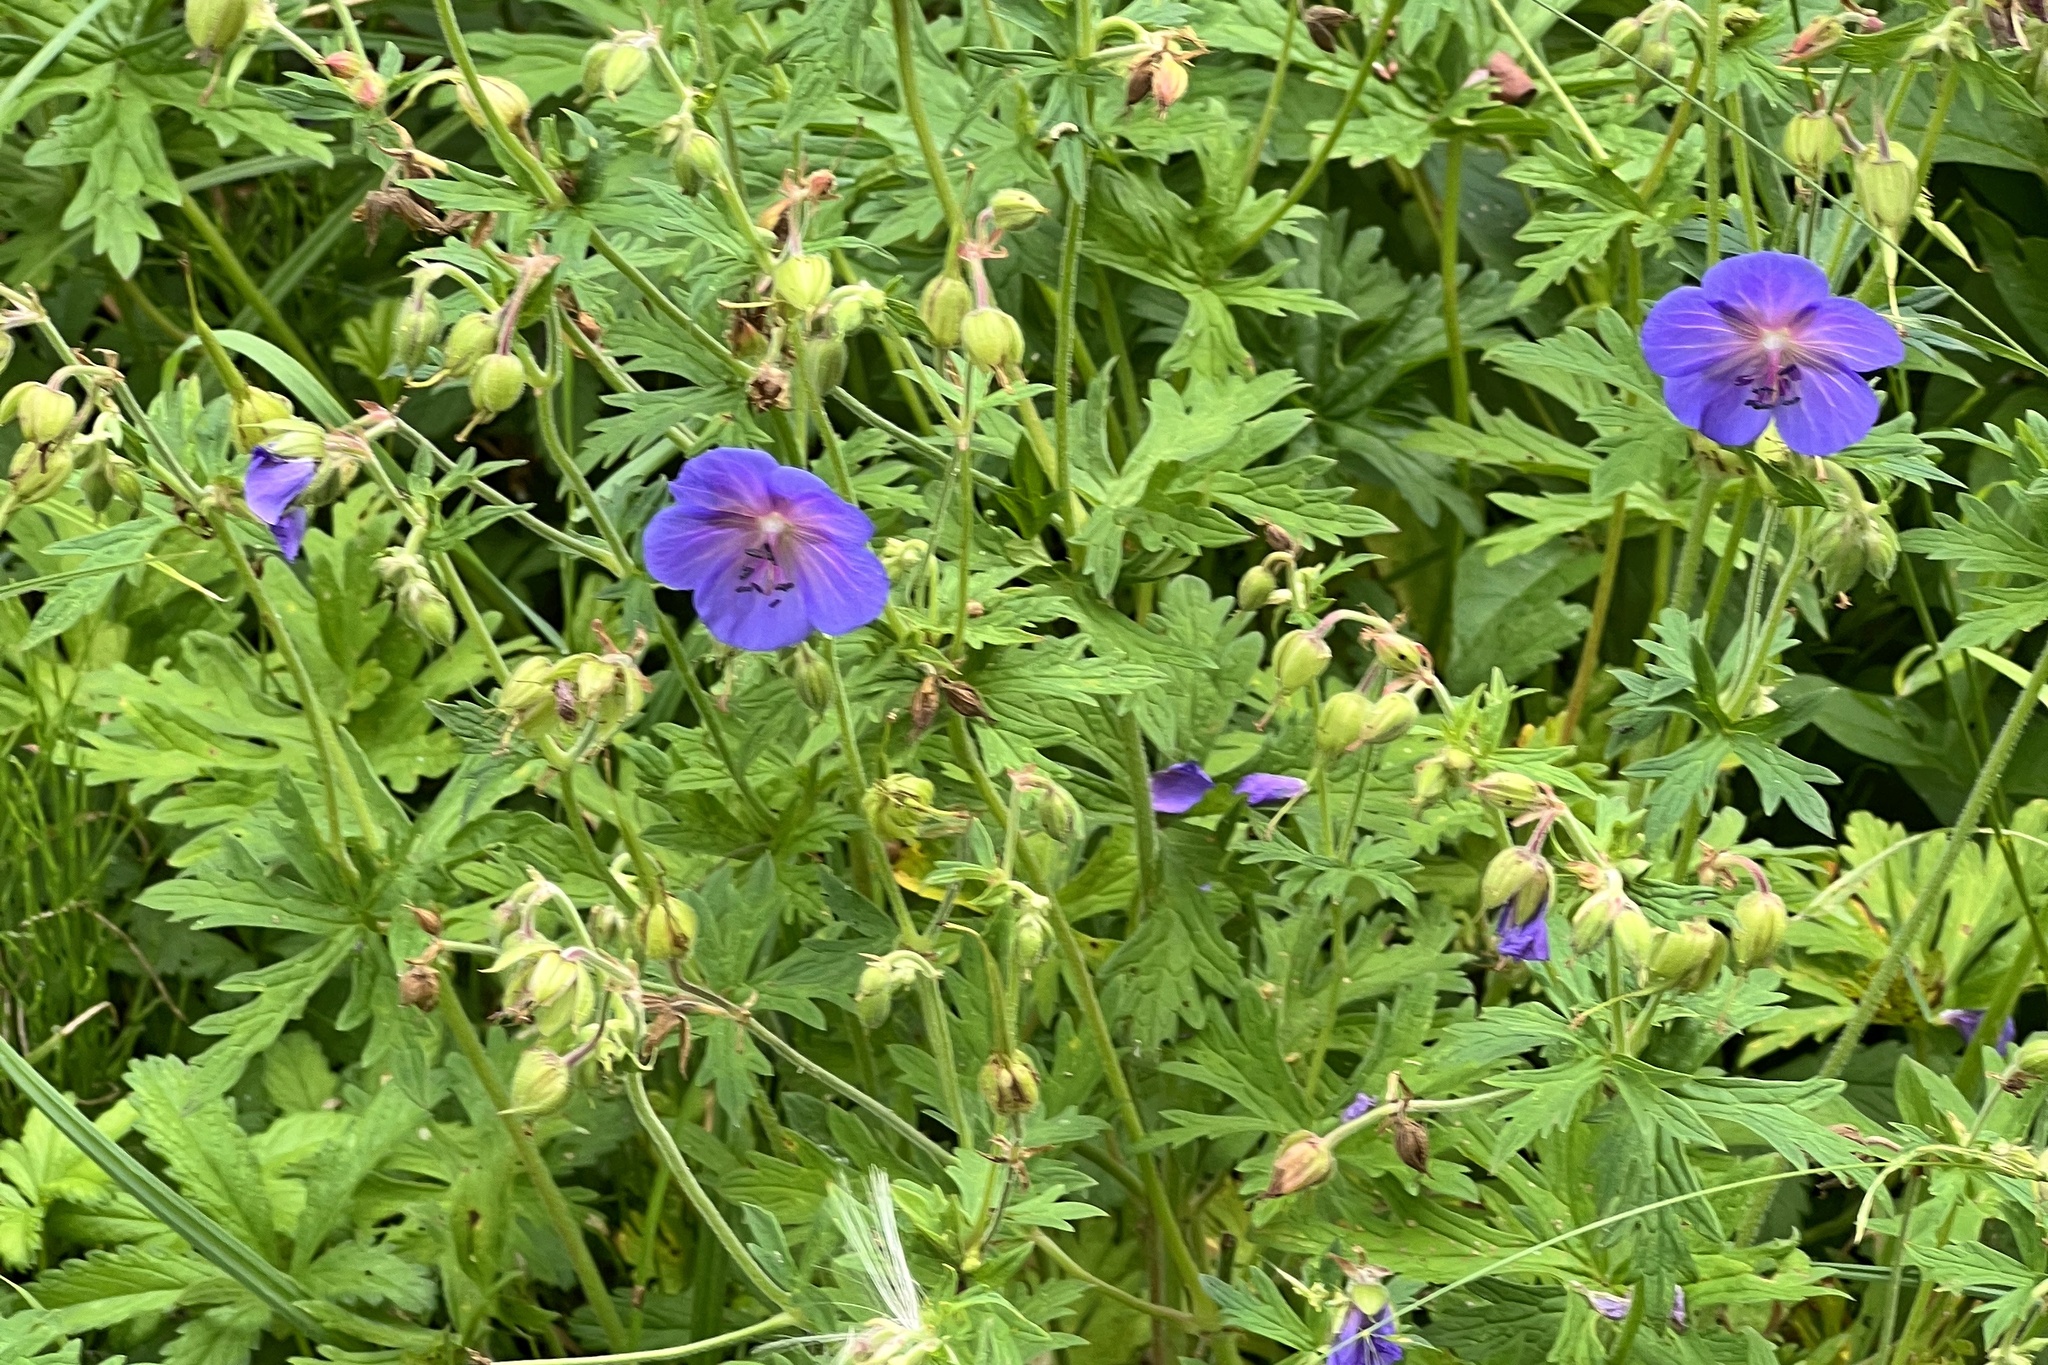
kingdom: Plantae
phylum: Tracheophyta
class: Magnoliopsida
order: Geraniales
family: Geraniaceae
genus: Geranium
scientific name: Geranium pratense
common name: Meadow crane's-bill
